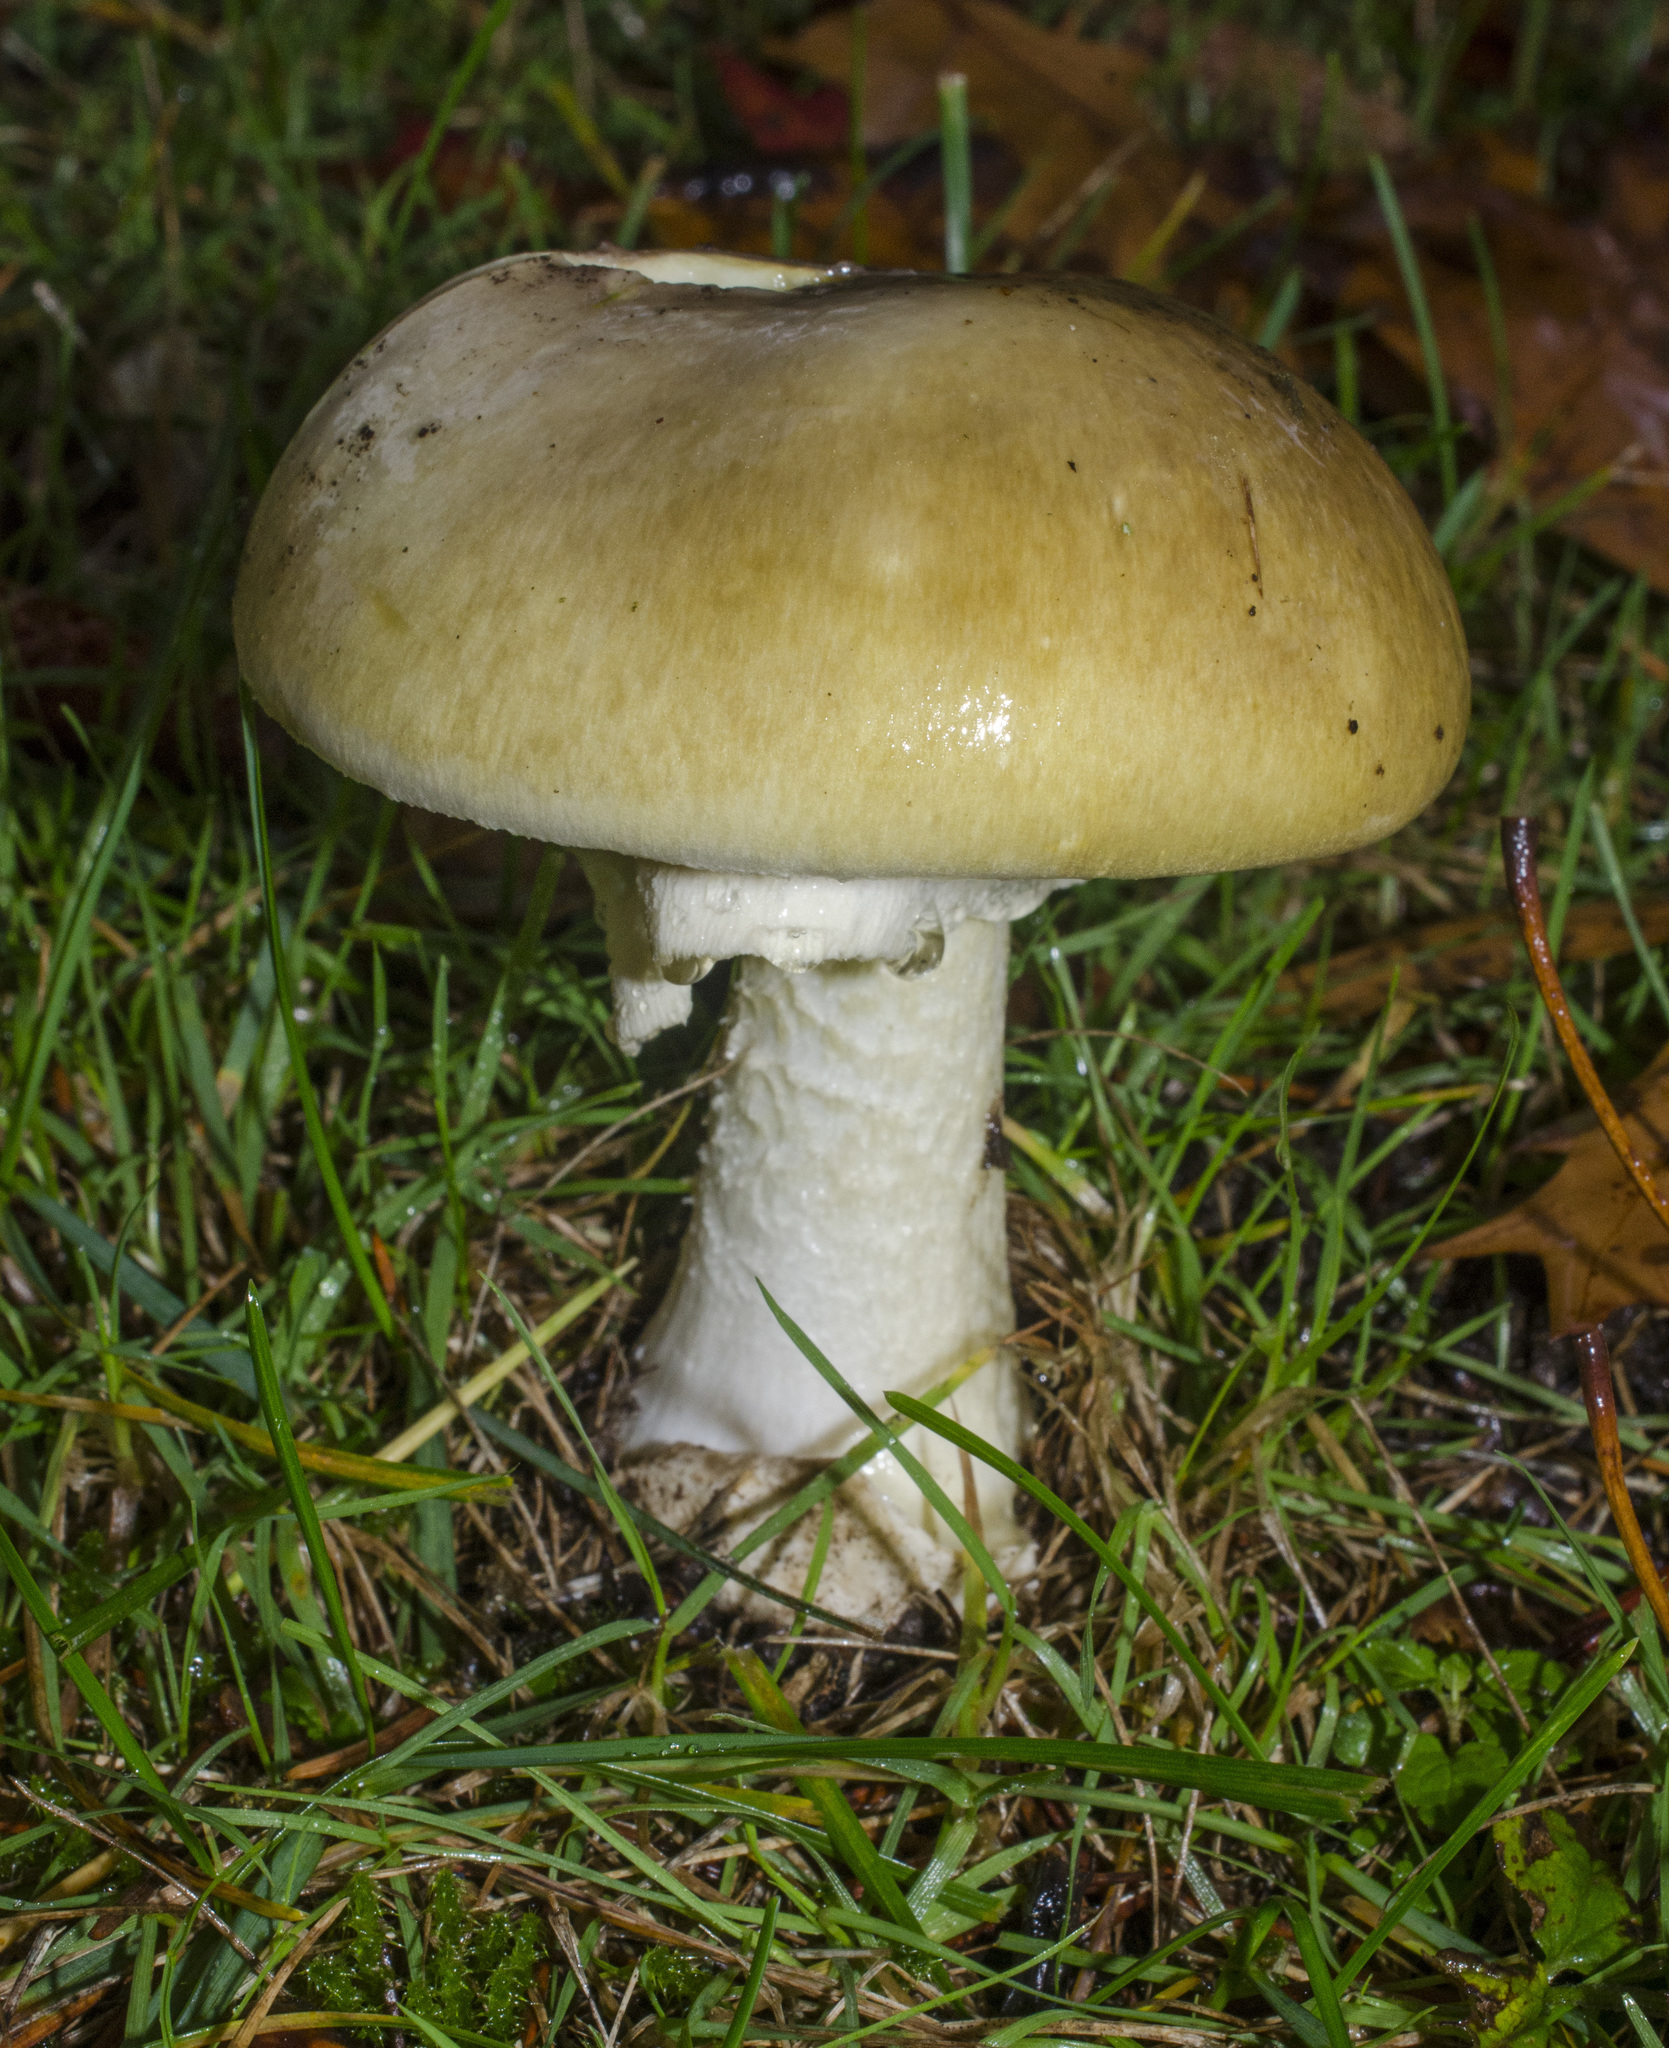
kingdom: Fungi
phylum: Basidiomycota
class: Agaricomycetes
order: Agaricales
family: Amanitaceae
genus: Amanita
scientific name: Amanita phalloides
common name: Death cap
